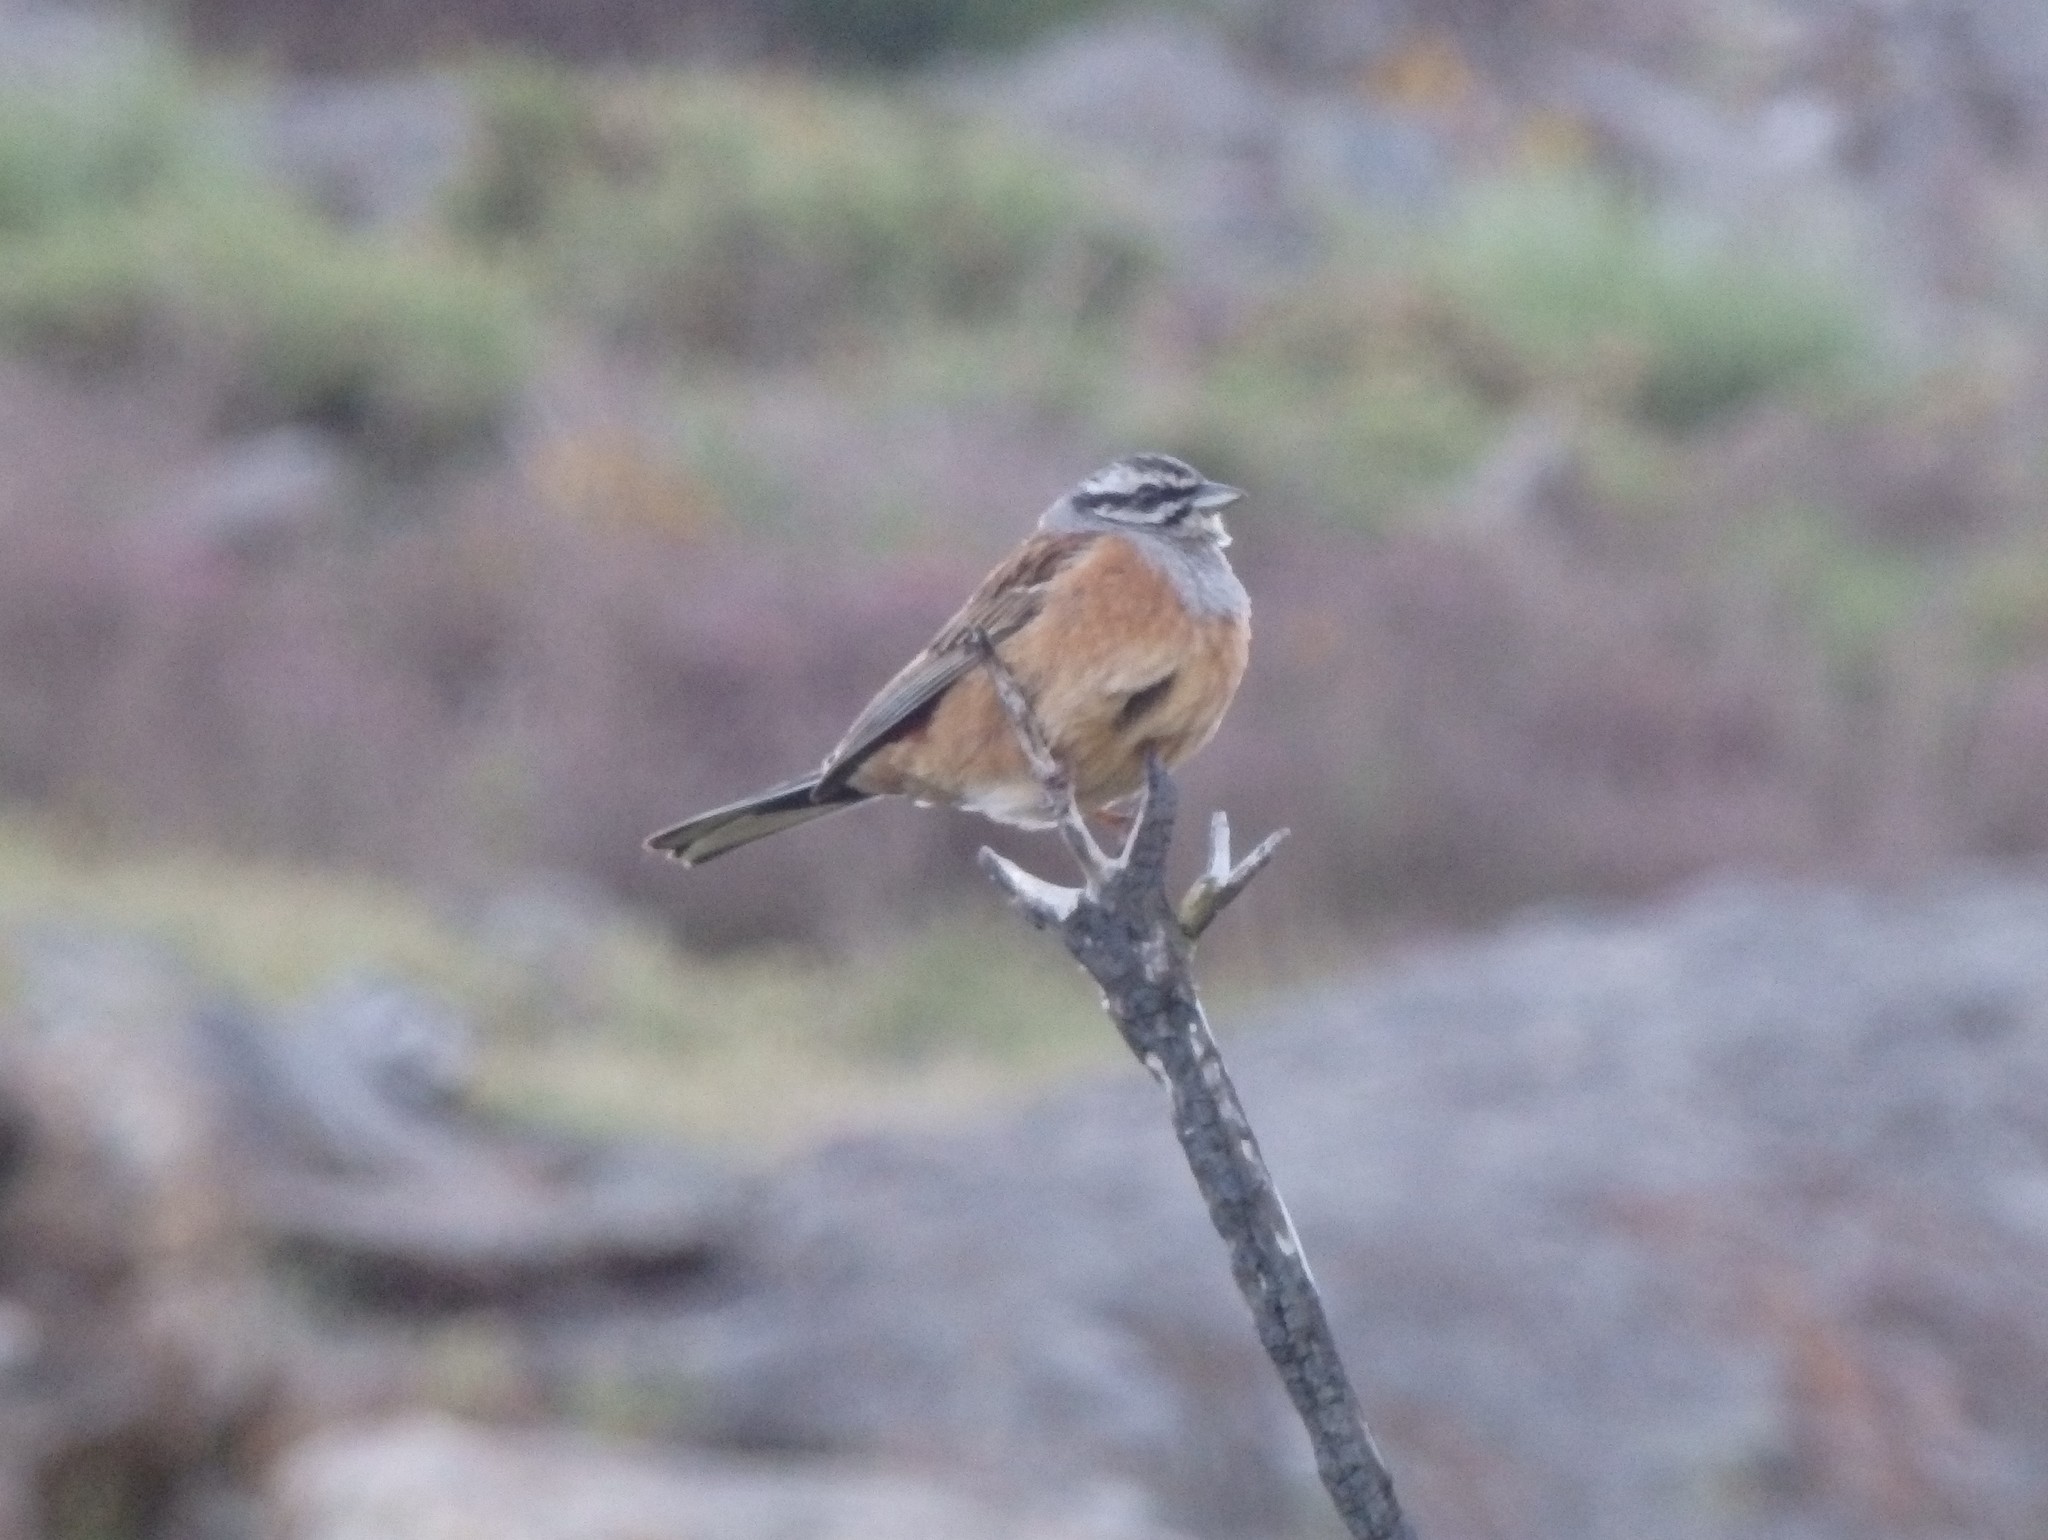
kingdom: Animalia
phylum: Chordata
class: Aves
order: Passeriformes
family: Emberizidae
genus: Emberiza
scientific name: Emberiza cia
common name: Rock bunting
